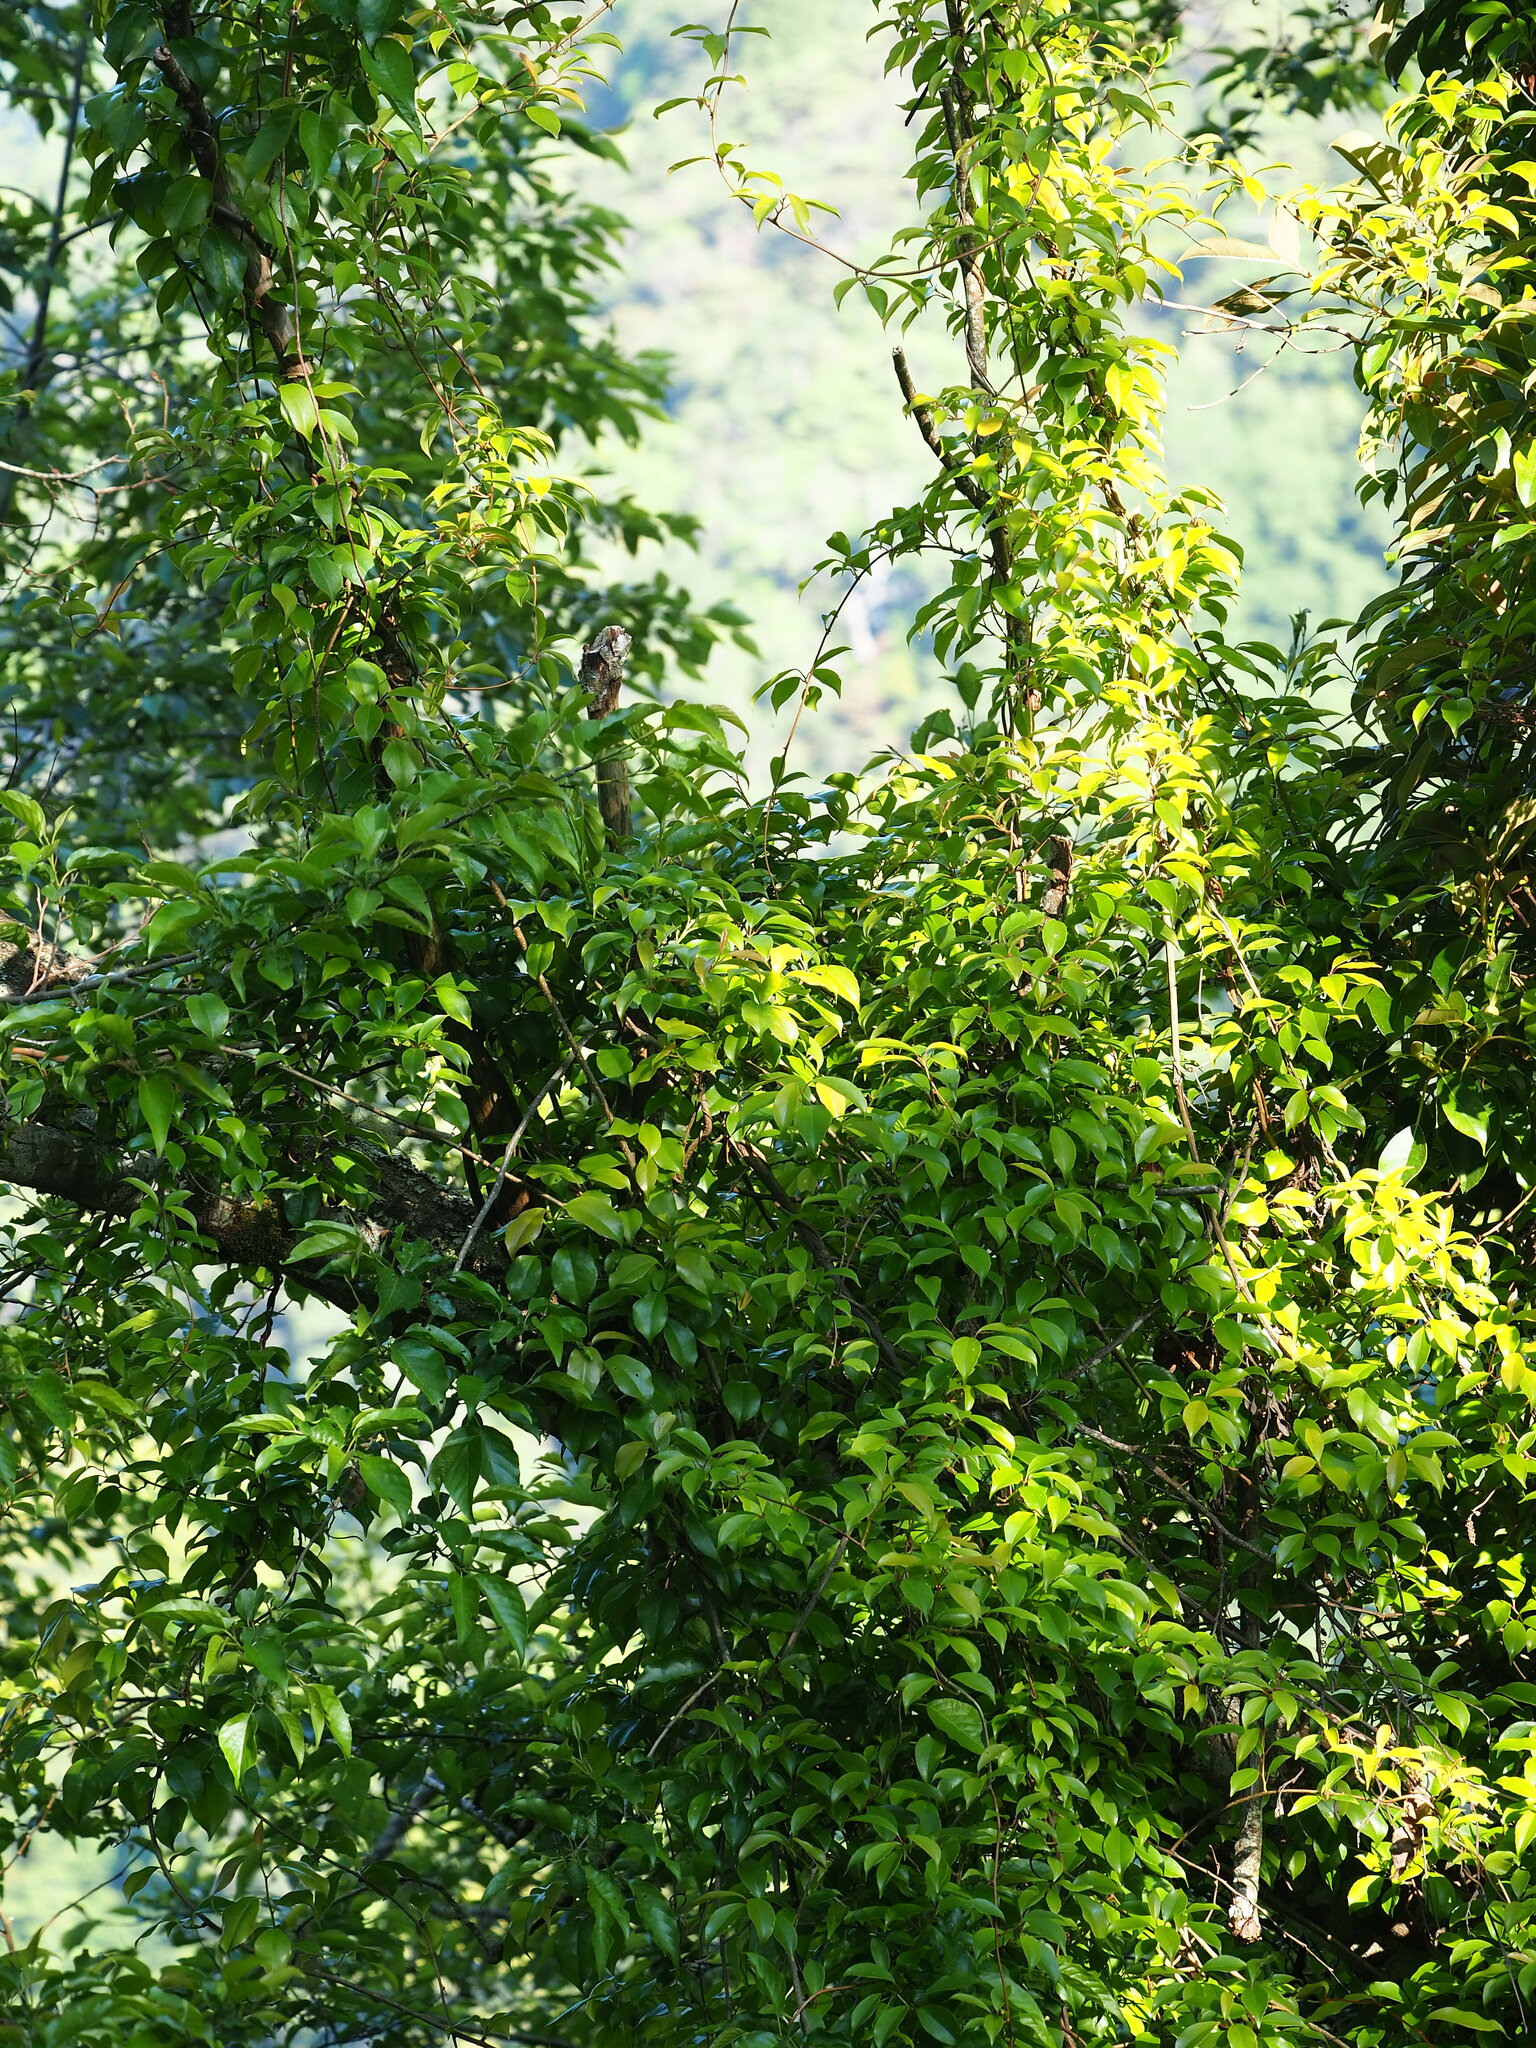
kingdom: Plantae
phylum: Tracheophyta
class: Magnoliopsida
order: Austrobaileyales
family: Schisandraceae
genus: Kadsura
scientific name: Kadsura matsudae
